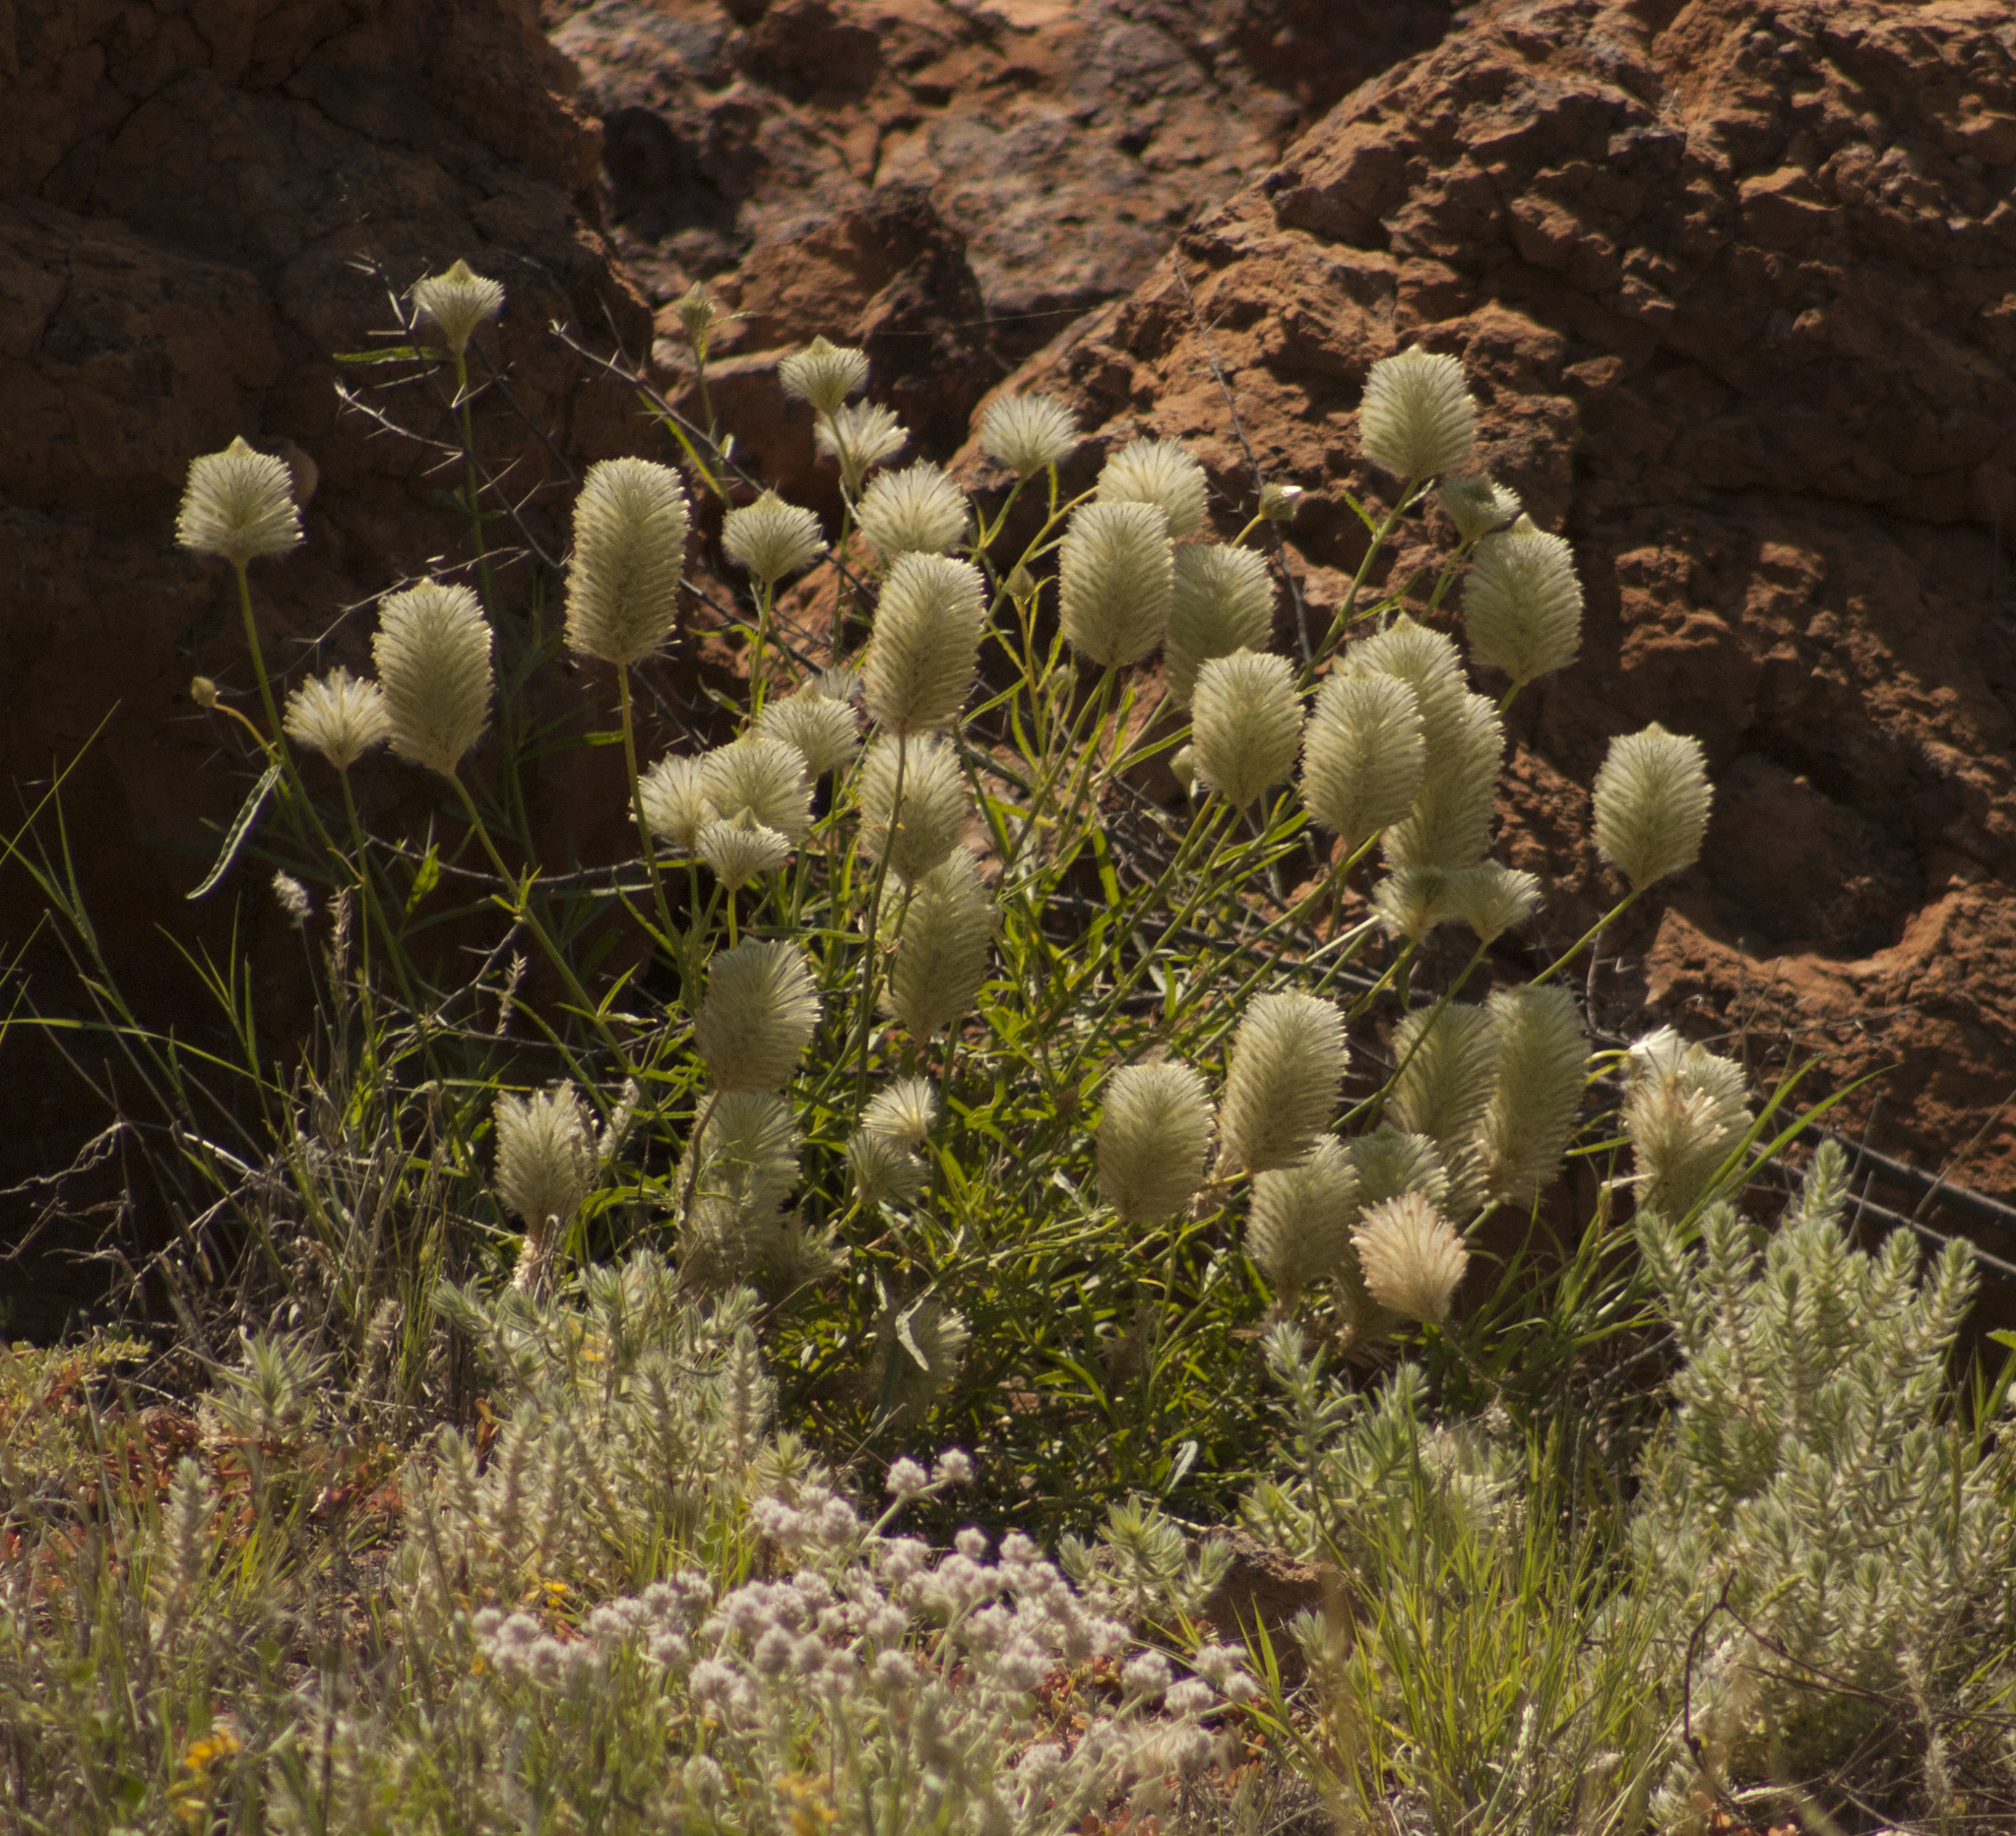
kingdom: Plantae
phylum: Tracheophyta
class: Magnoliopsida
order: Caryophyllales
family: Amaranthaceae
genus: Ptilotus
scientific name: Ptilotus xerophilus
